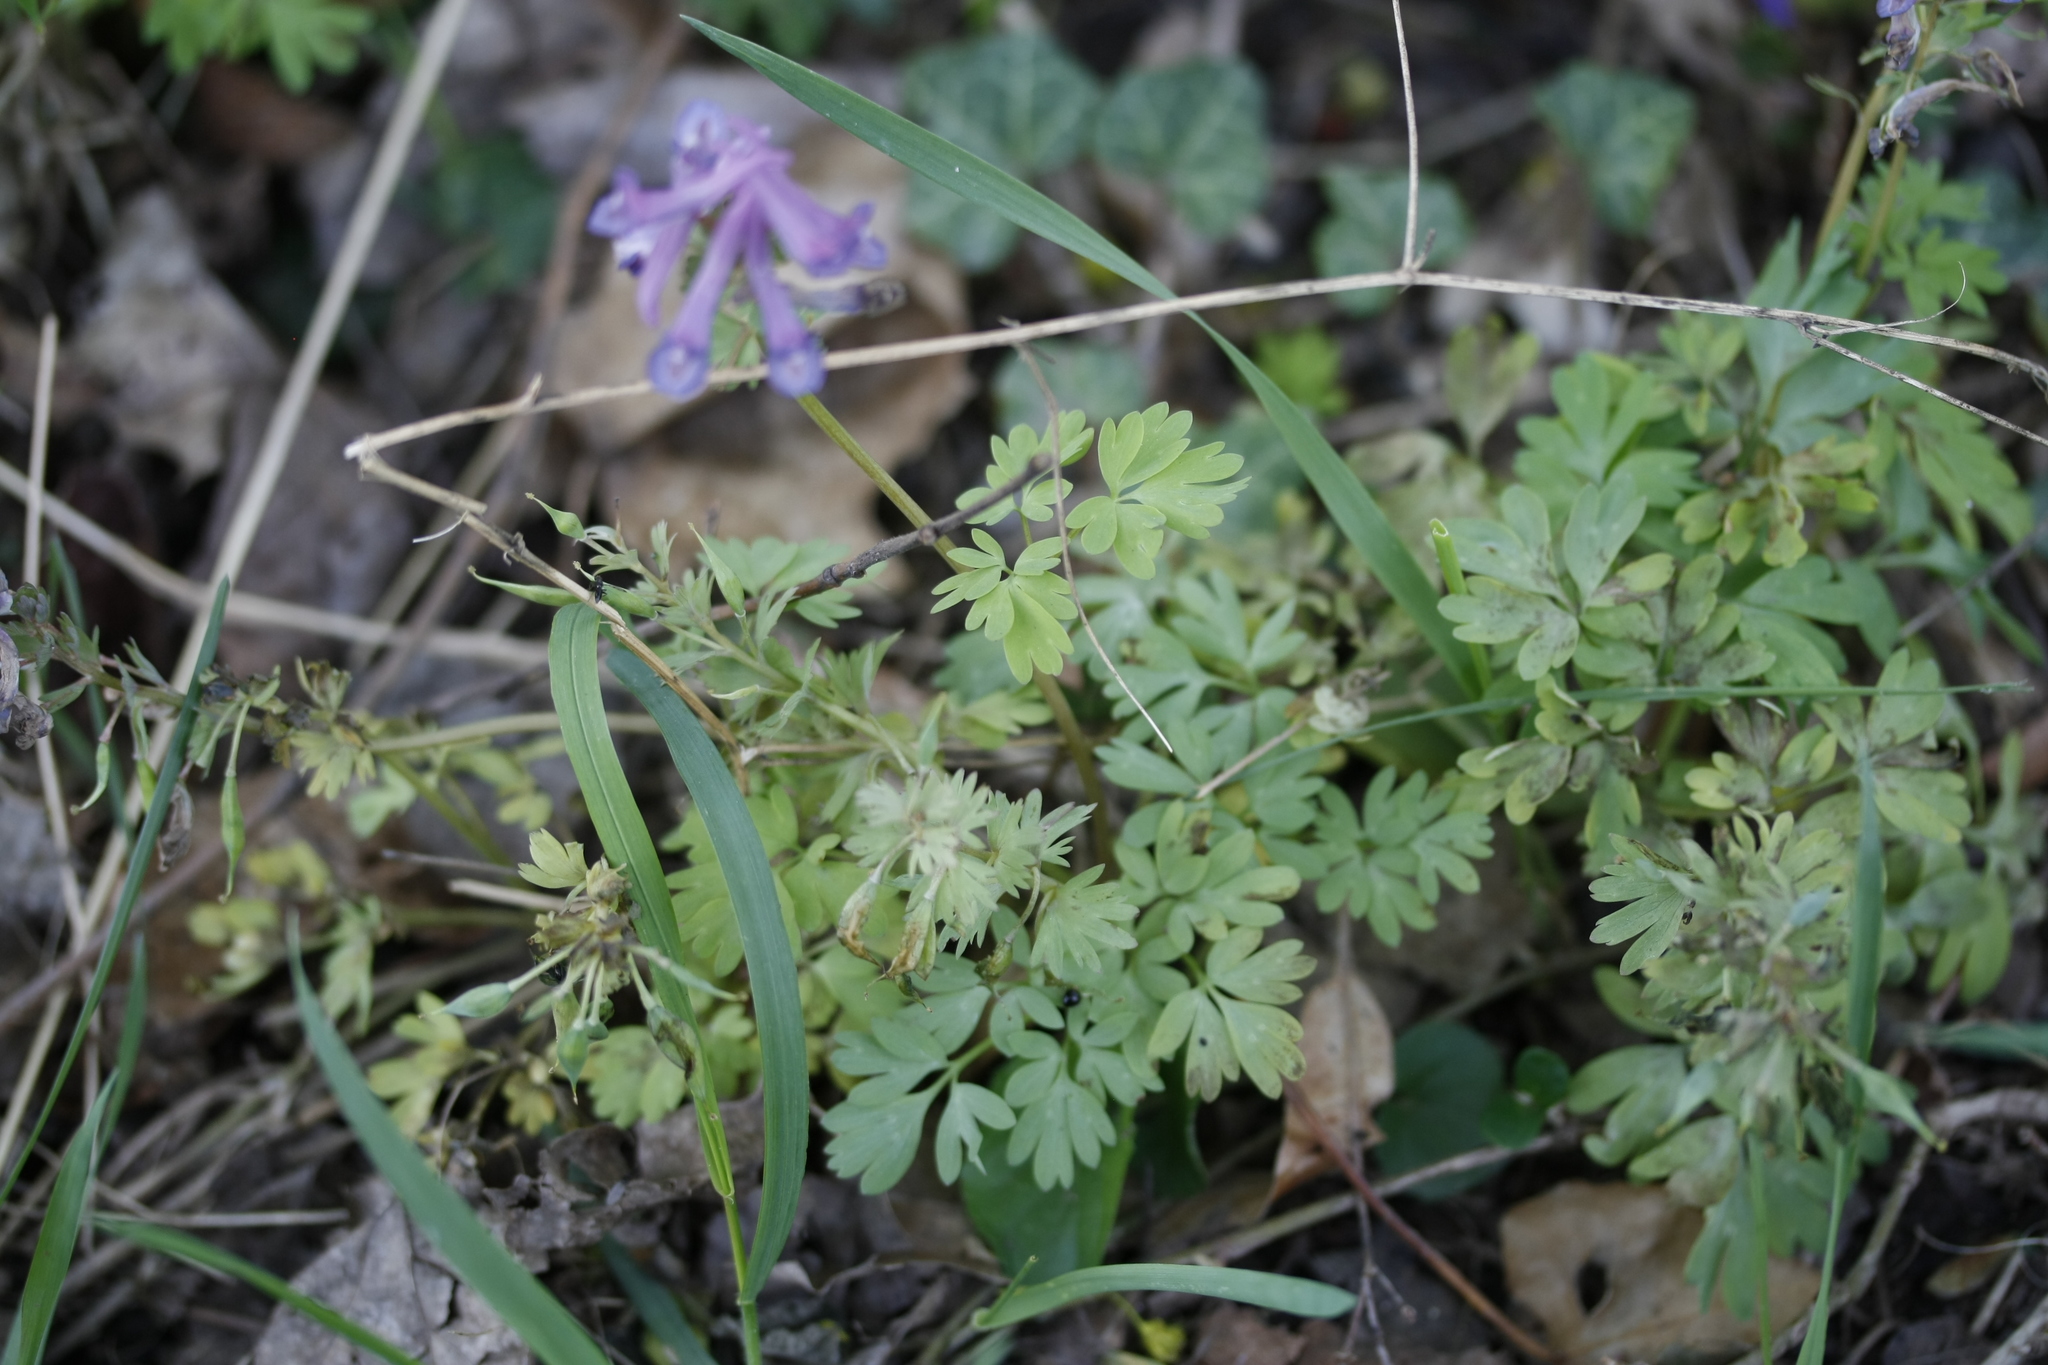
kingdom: Plantae
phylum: Tracheophyta
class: Magnoliopsida
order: Ranunculales
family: Papaveraceae
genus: Corydalis
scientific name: Corydalis solida
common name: Bird-in-a-bush
